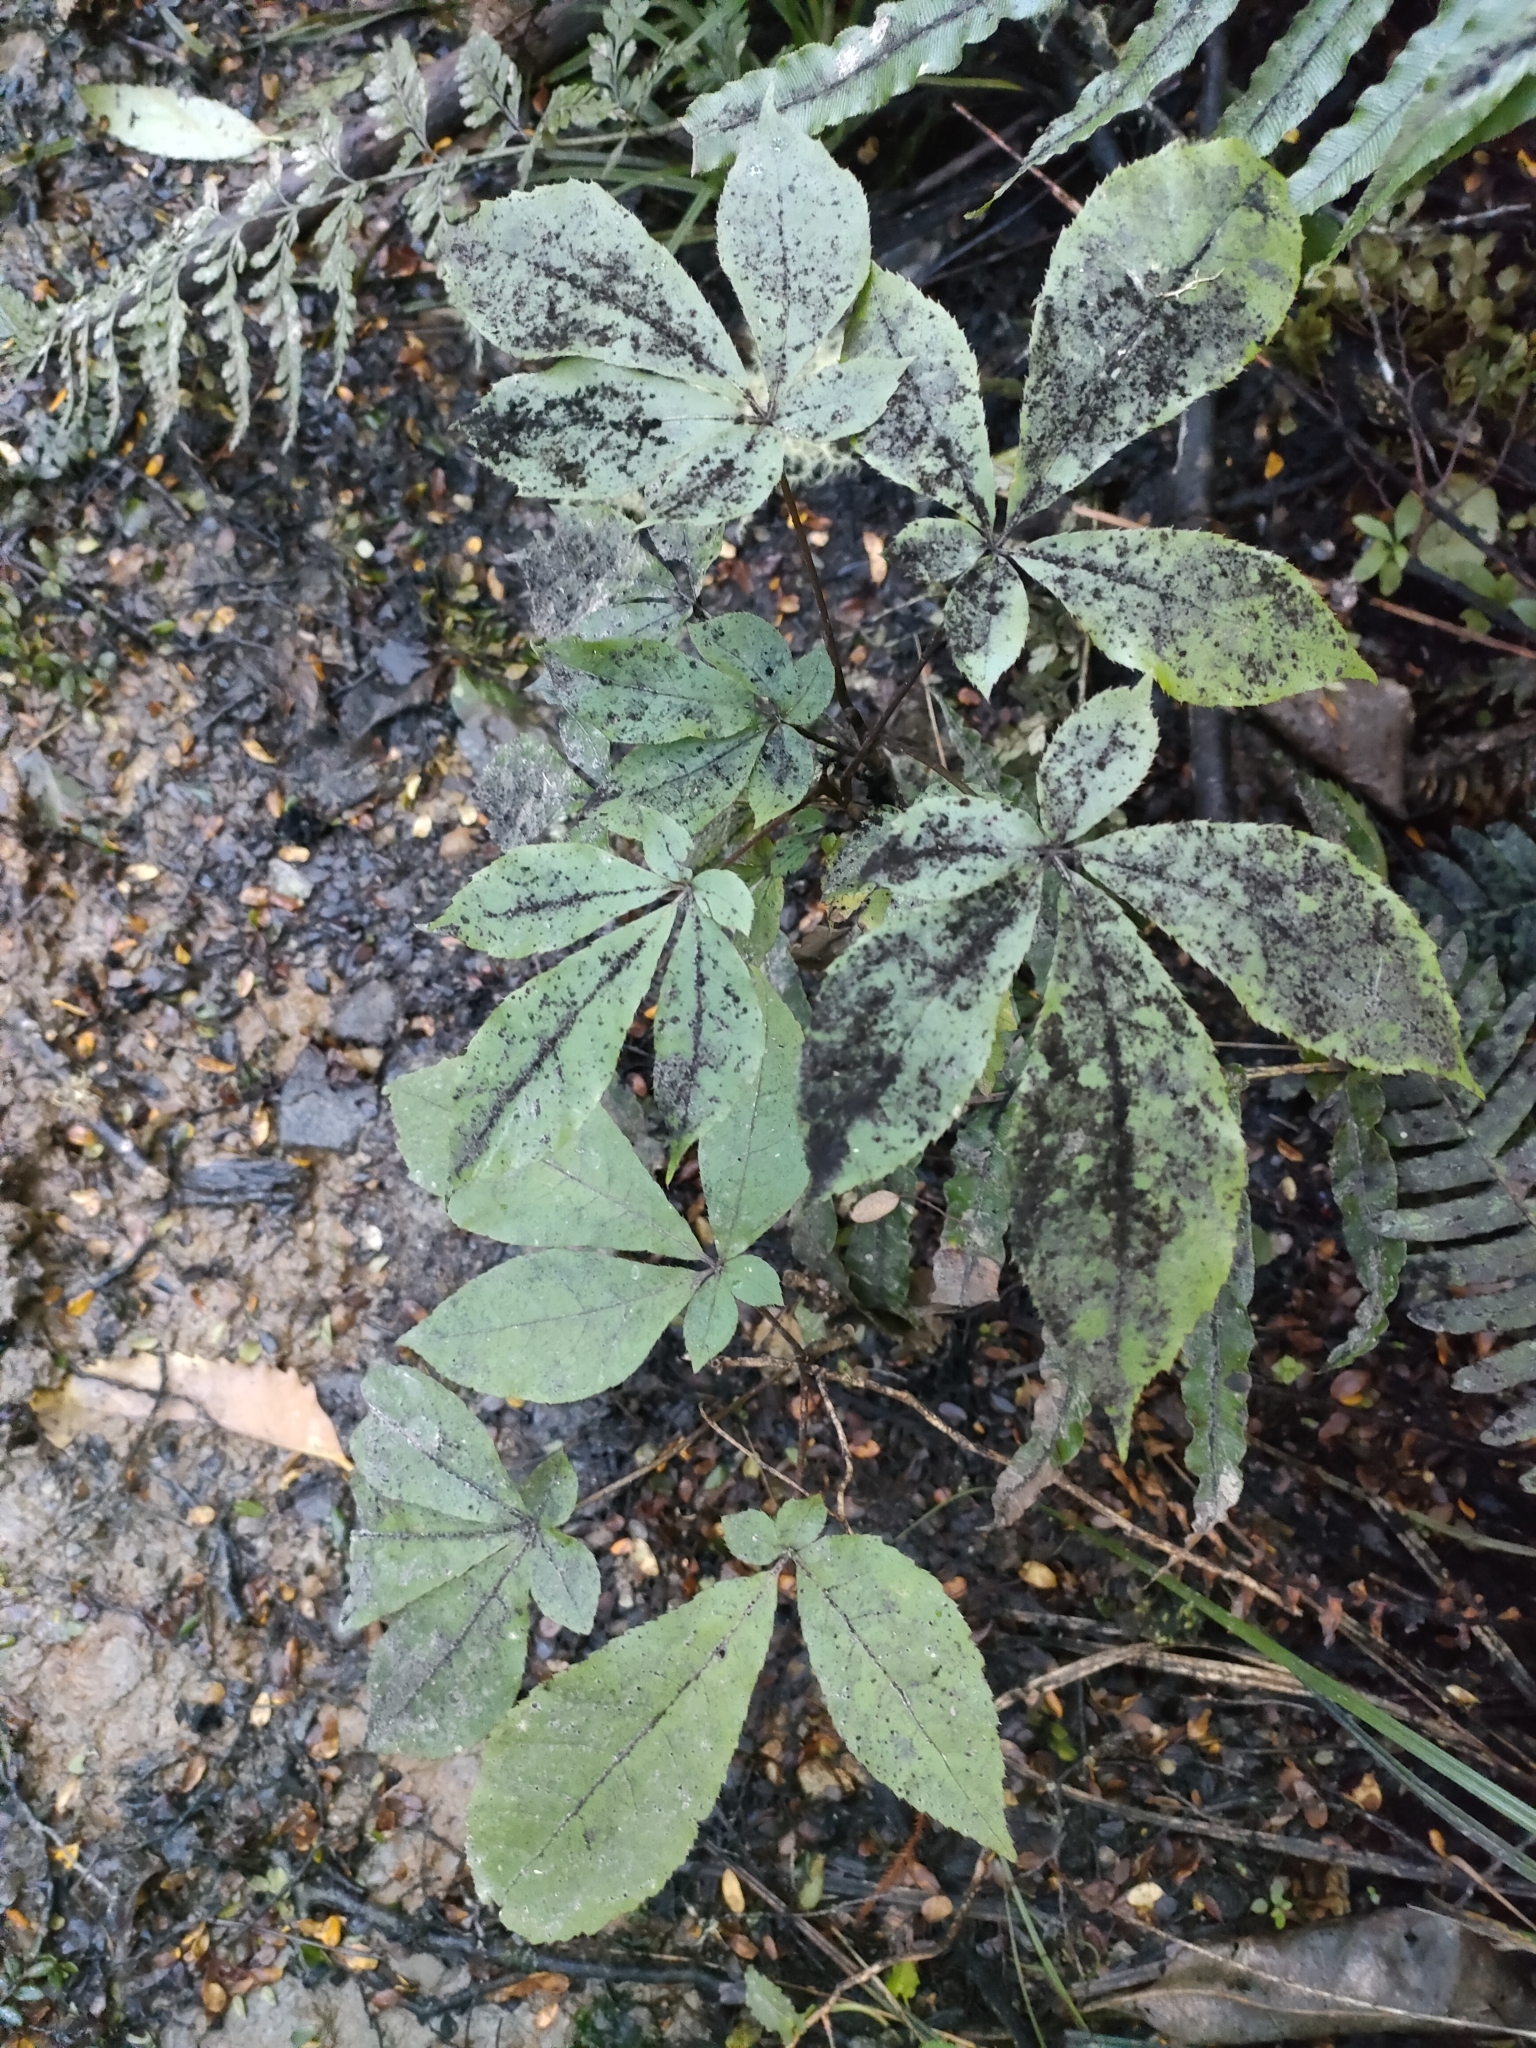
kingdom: Plantae
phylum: Tracheophyta
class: Magnoliopsida
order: Apiales
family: Araliaceae
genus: Schefflera
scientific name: Schefflera digitata
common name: Pate
